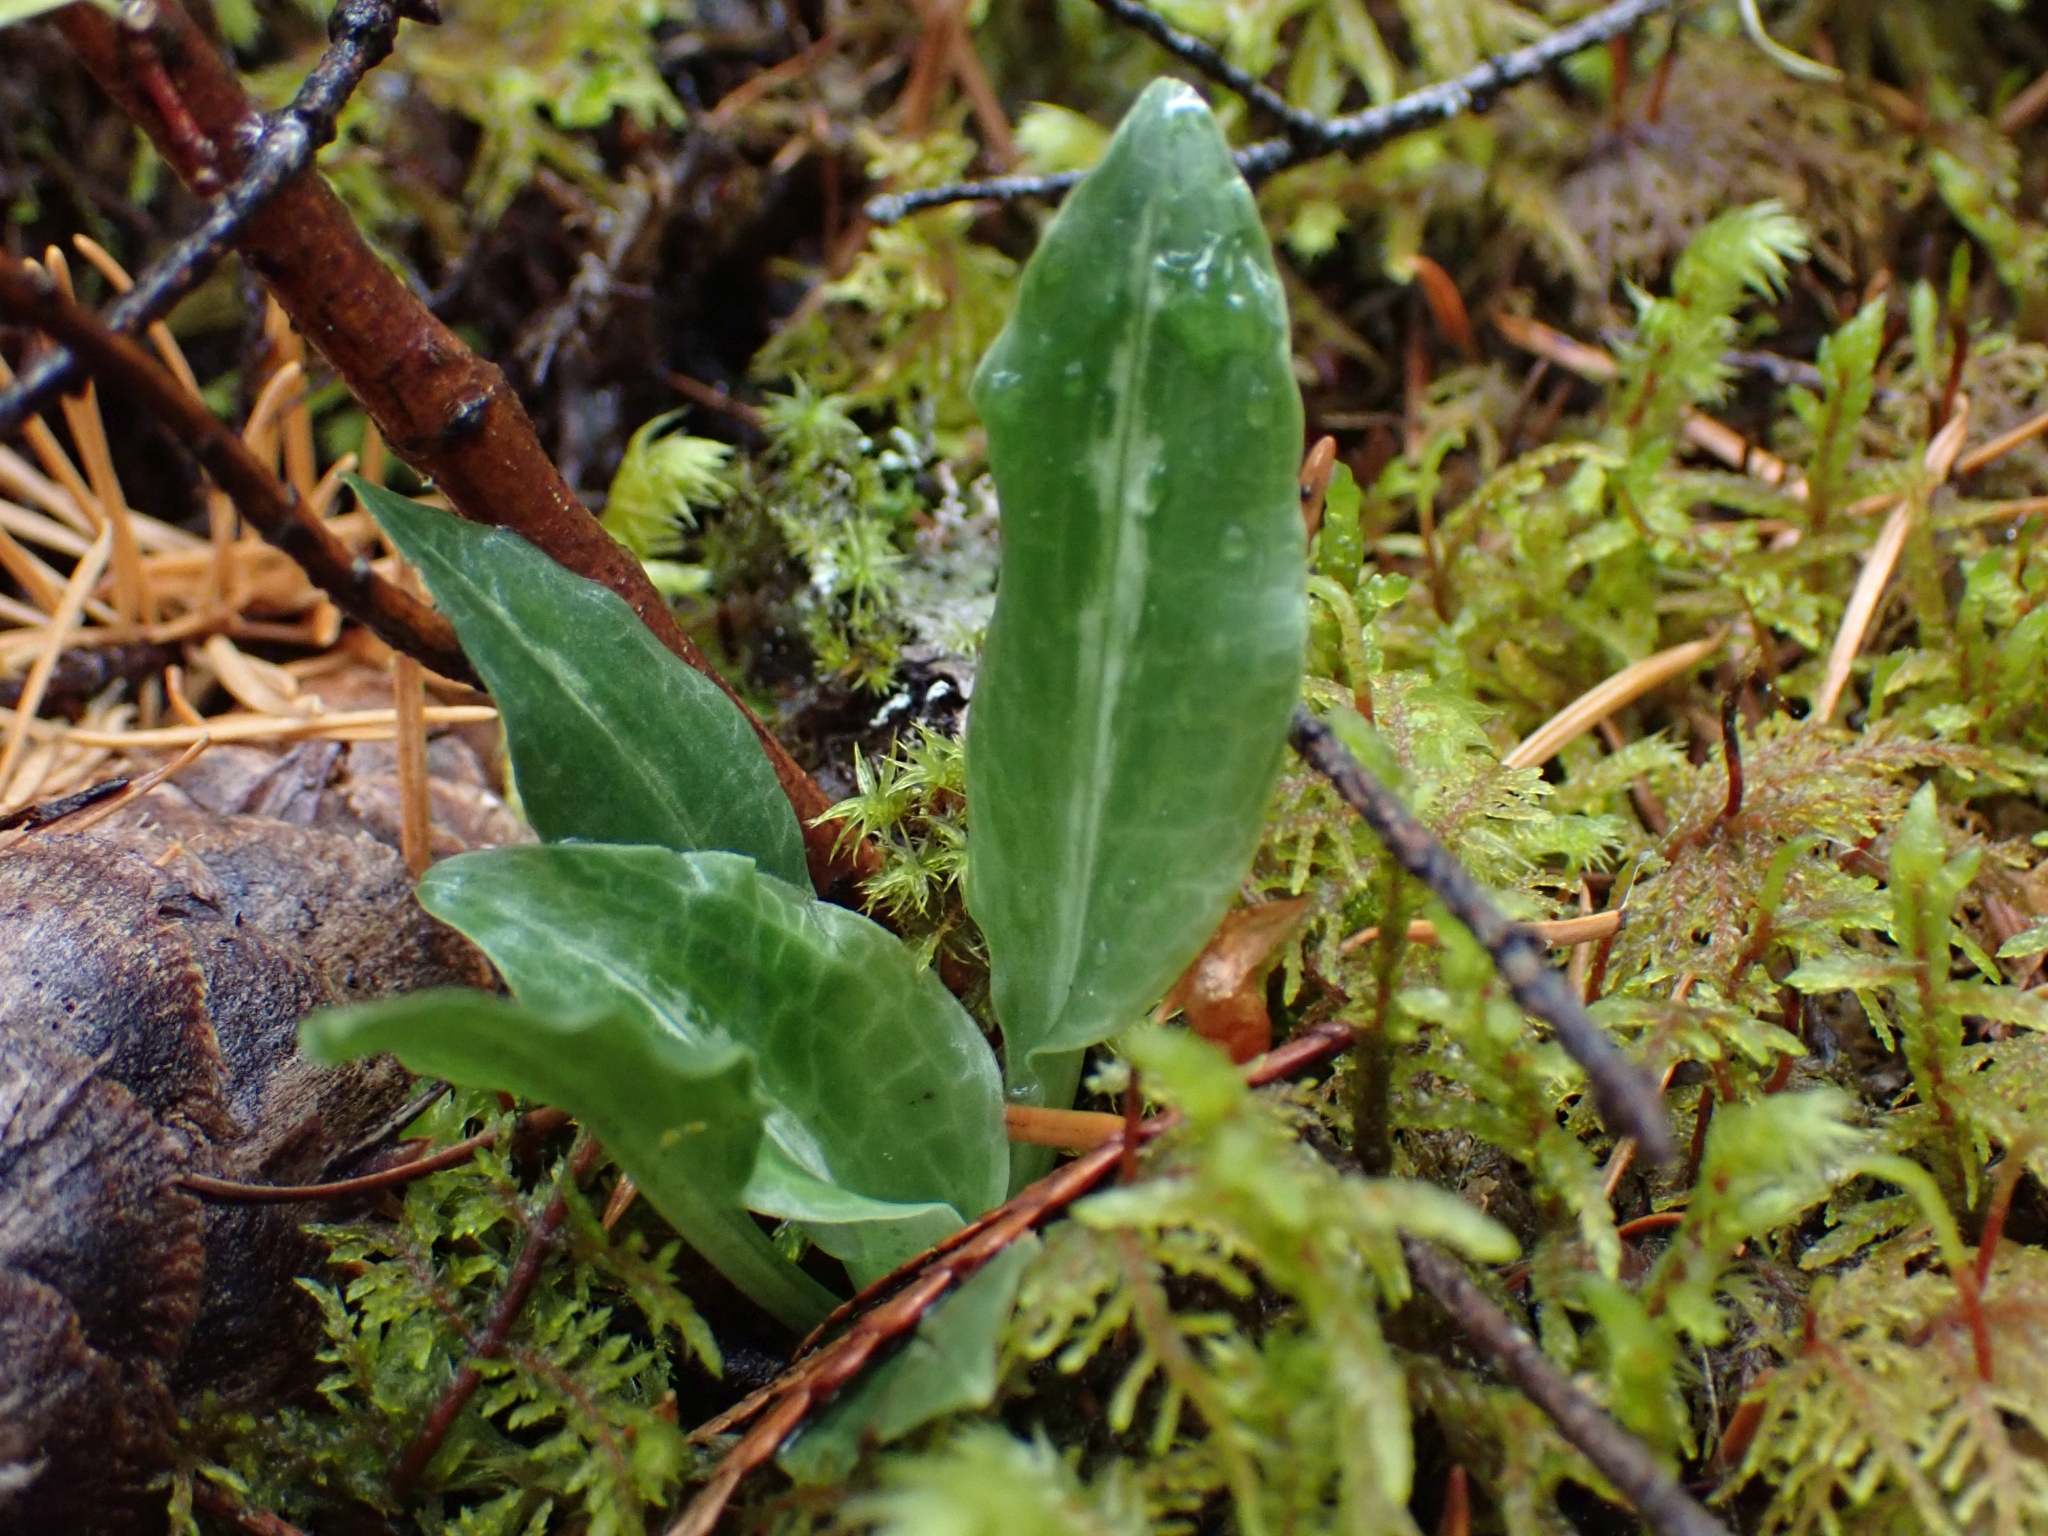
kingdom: Plantae
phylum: Tracheophyta
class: Liliopsida
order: Asparagales
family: Orchidaceae
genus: Goodyera
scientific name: Goodyera oblongifolia
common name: Giant rattlesnake-plantain
